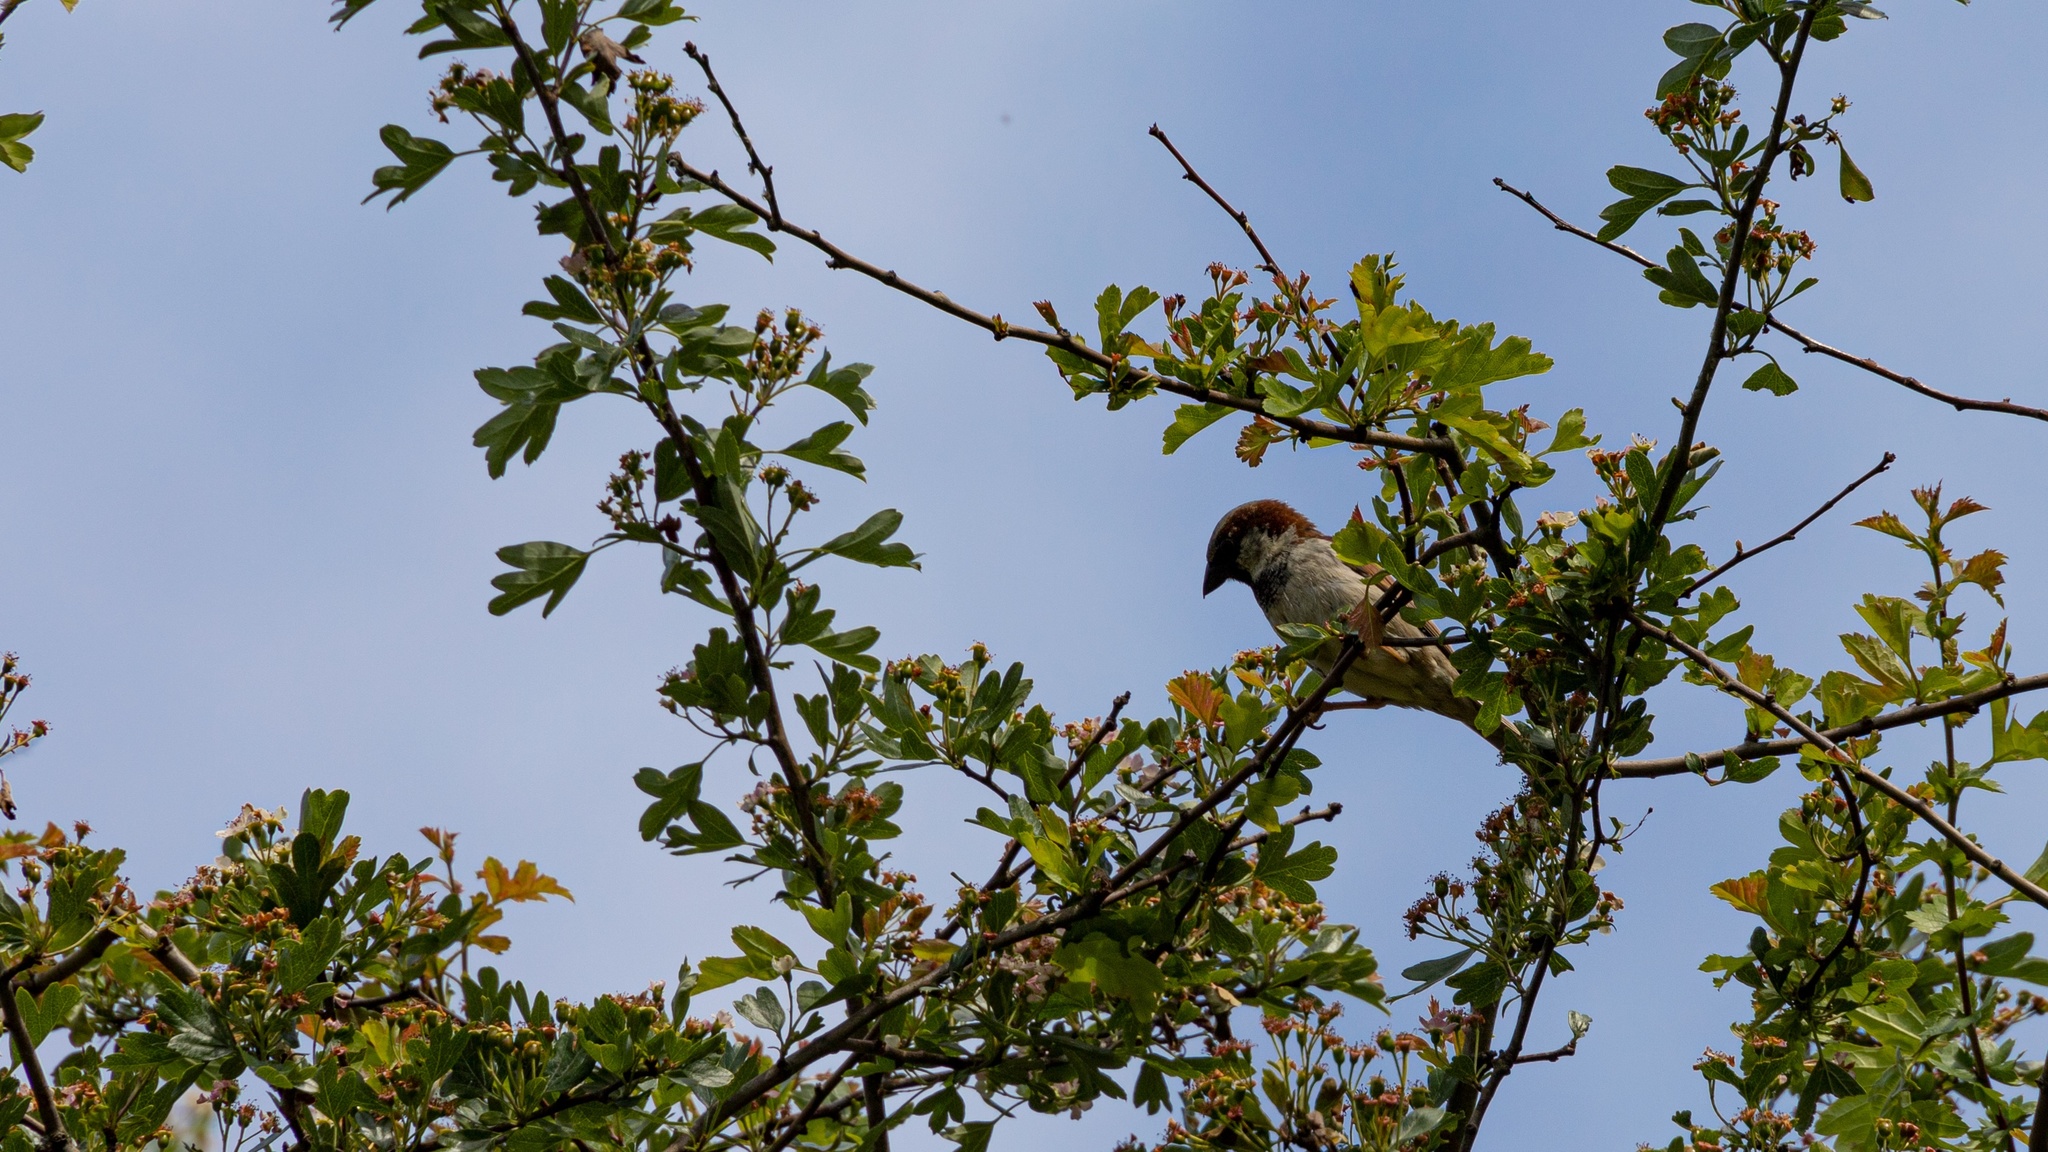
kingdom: Animalia
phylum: Chordata
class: Aves
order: Passeriformes
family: Passeridae
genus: Passer
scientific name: Passer domesticus
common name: House sparrow
